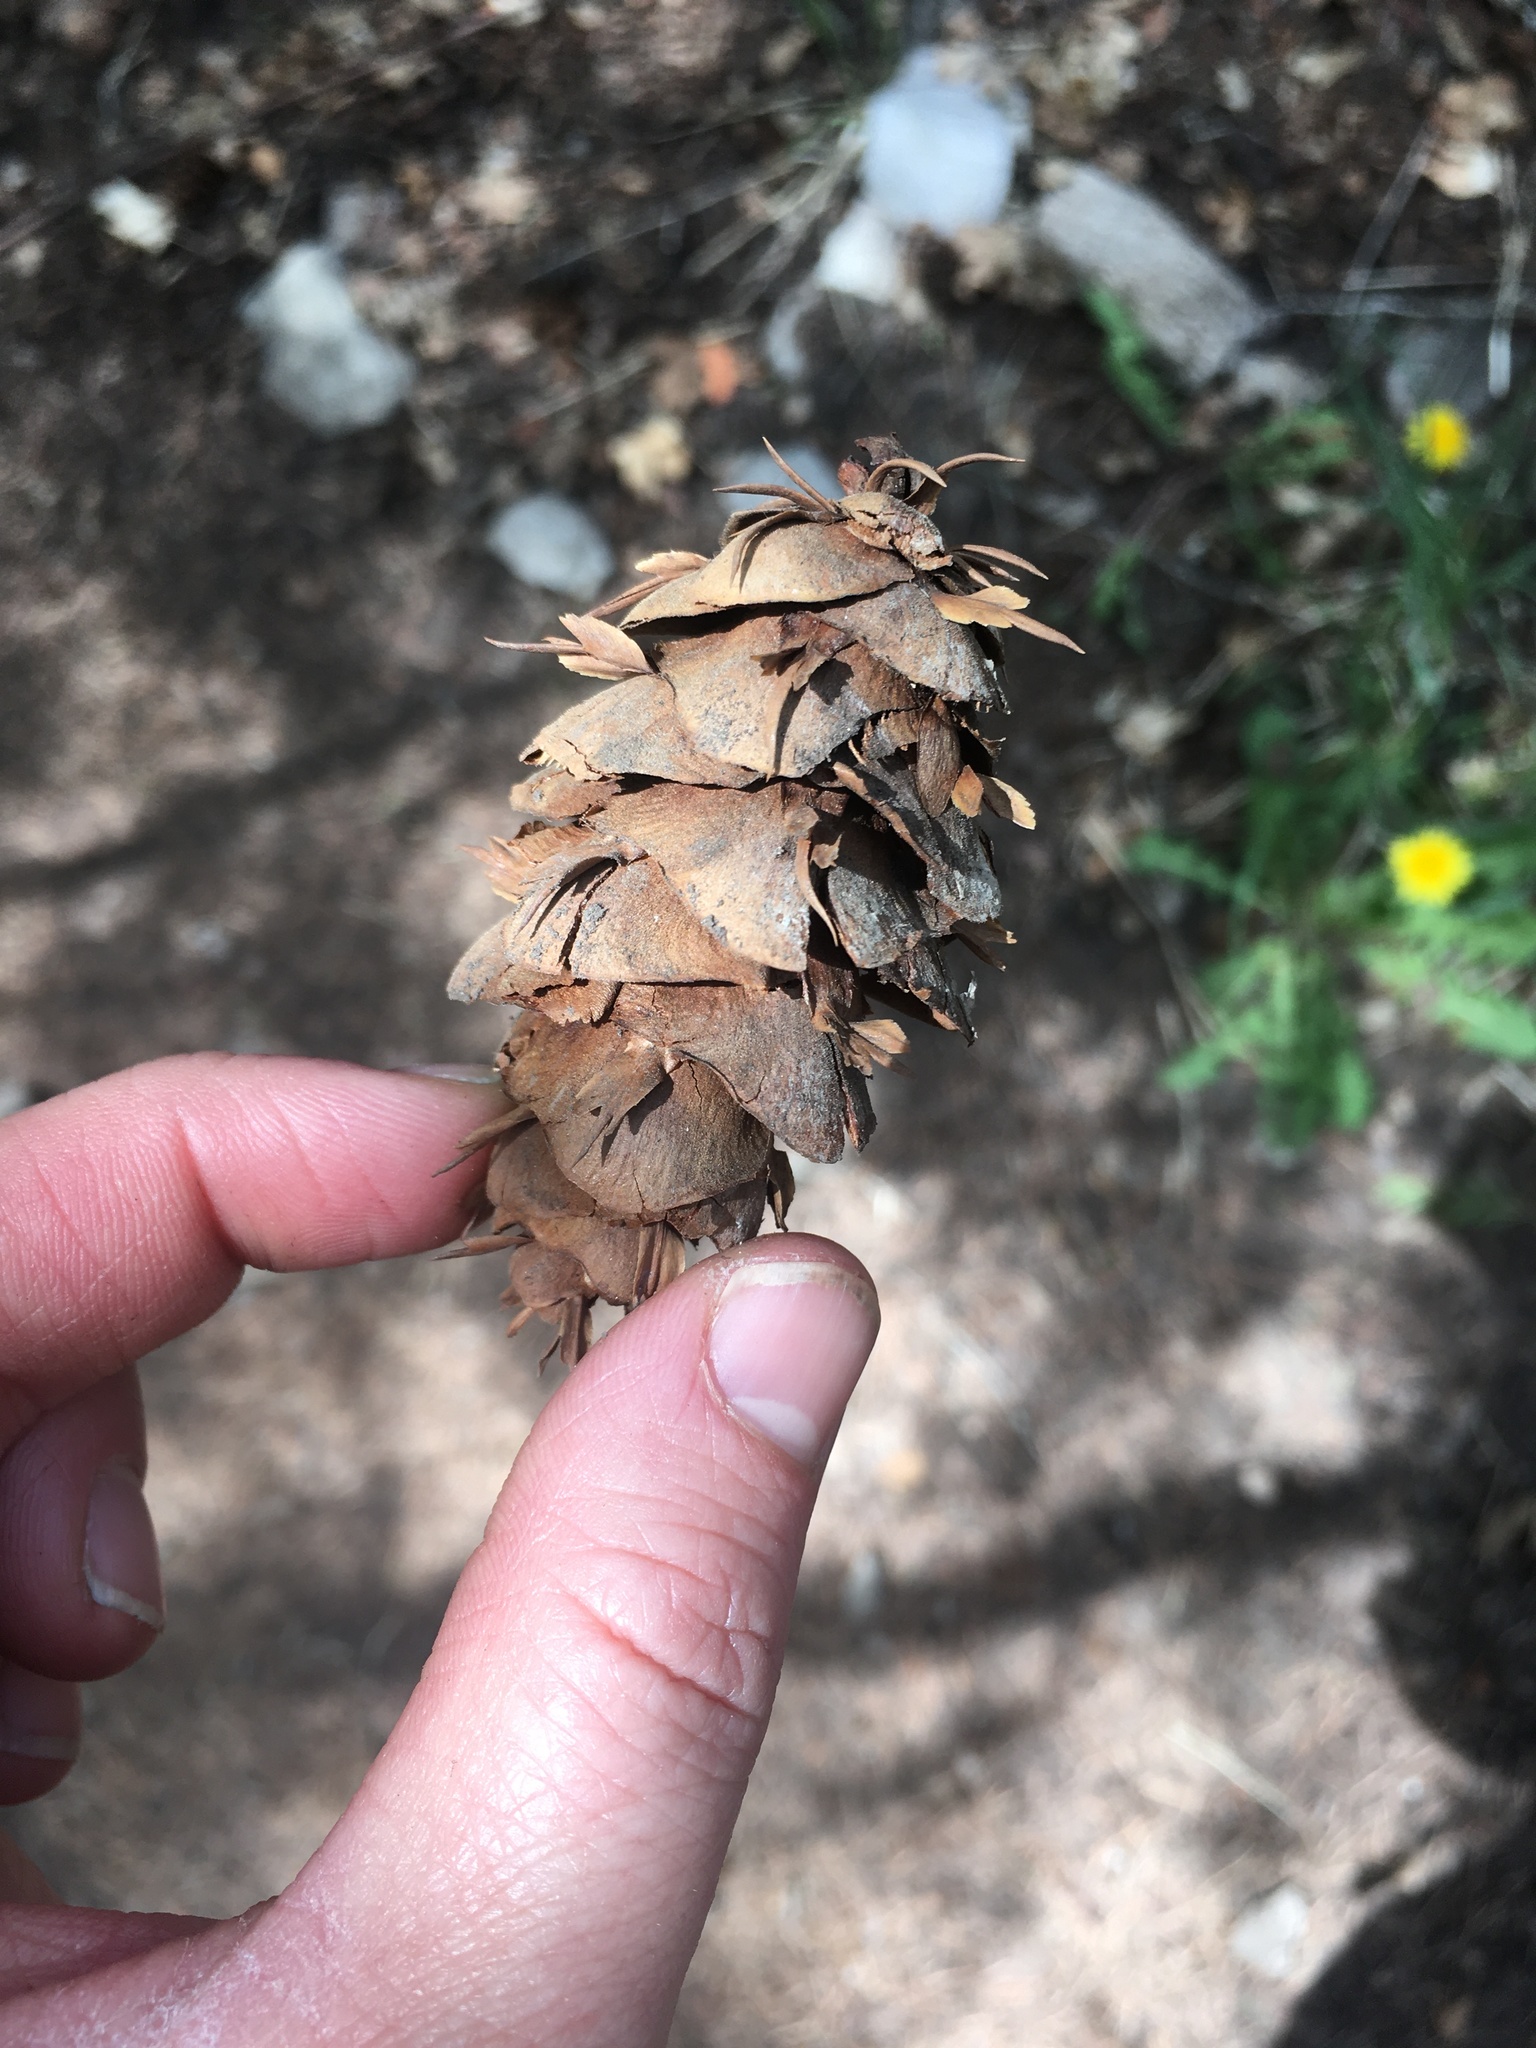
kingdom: Plantae
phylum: Tracheophyta
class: Pinopsida
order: Pinales
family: Pinaceae
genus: Pseudotsuga
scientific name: Pseudotsuga menziesii
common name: Douglas fir
